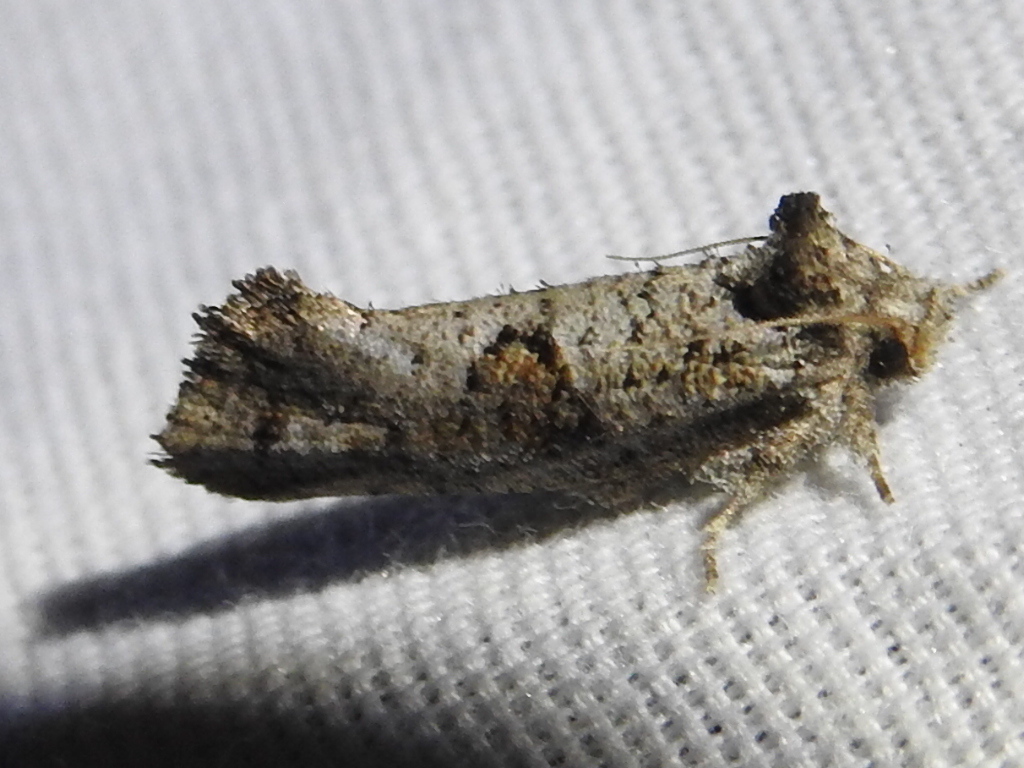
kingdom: Animalia
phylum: Arthropoda
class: Insecta
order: Lepidoptera
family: Tineidae
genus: Acrolophus
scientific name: Acrolophus piger
